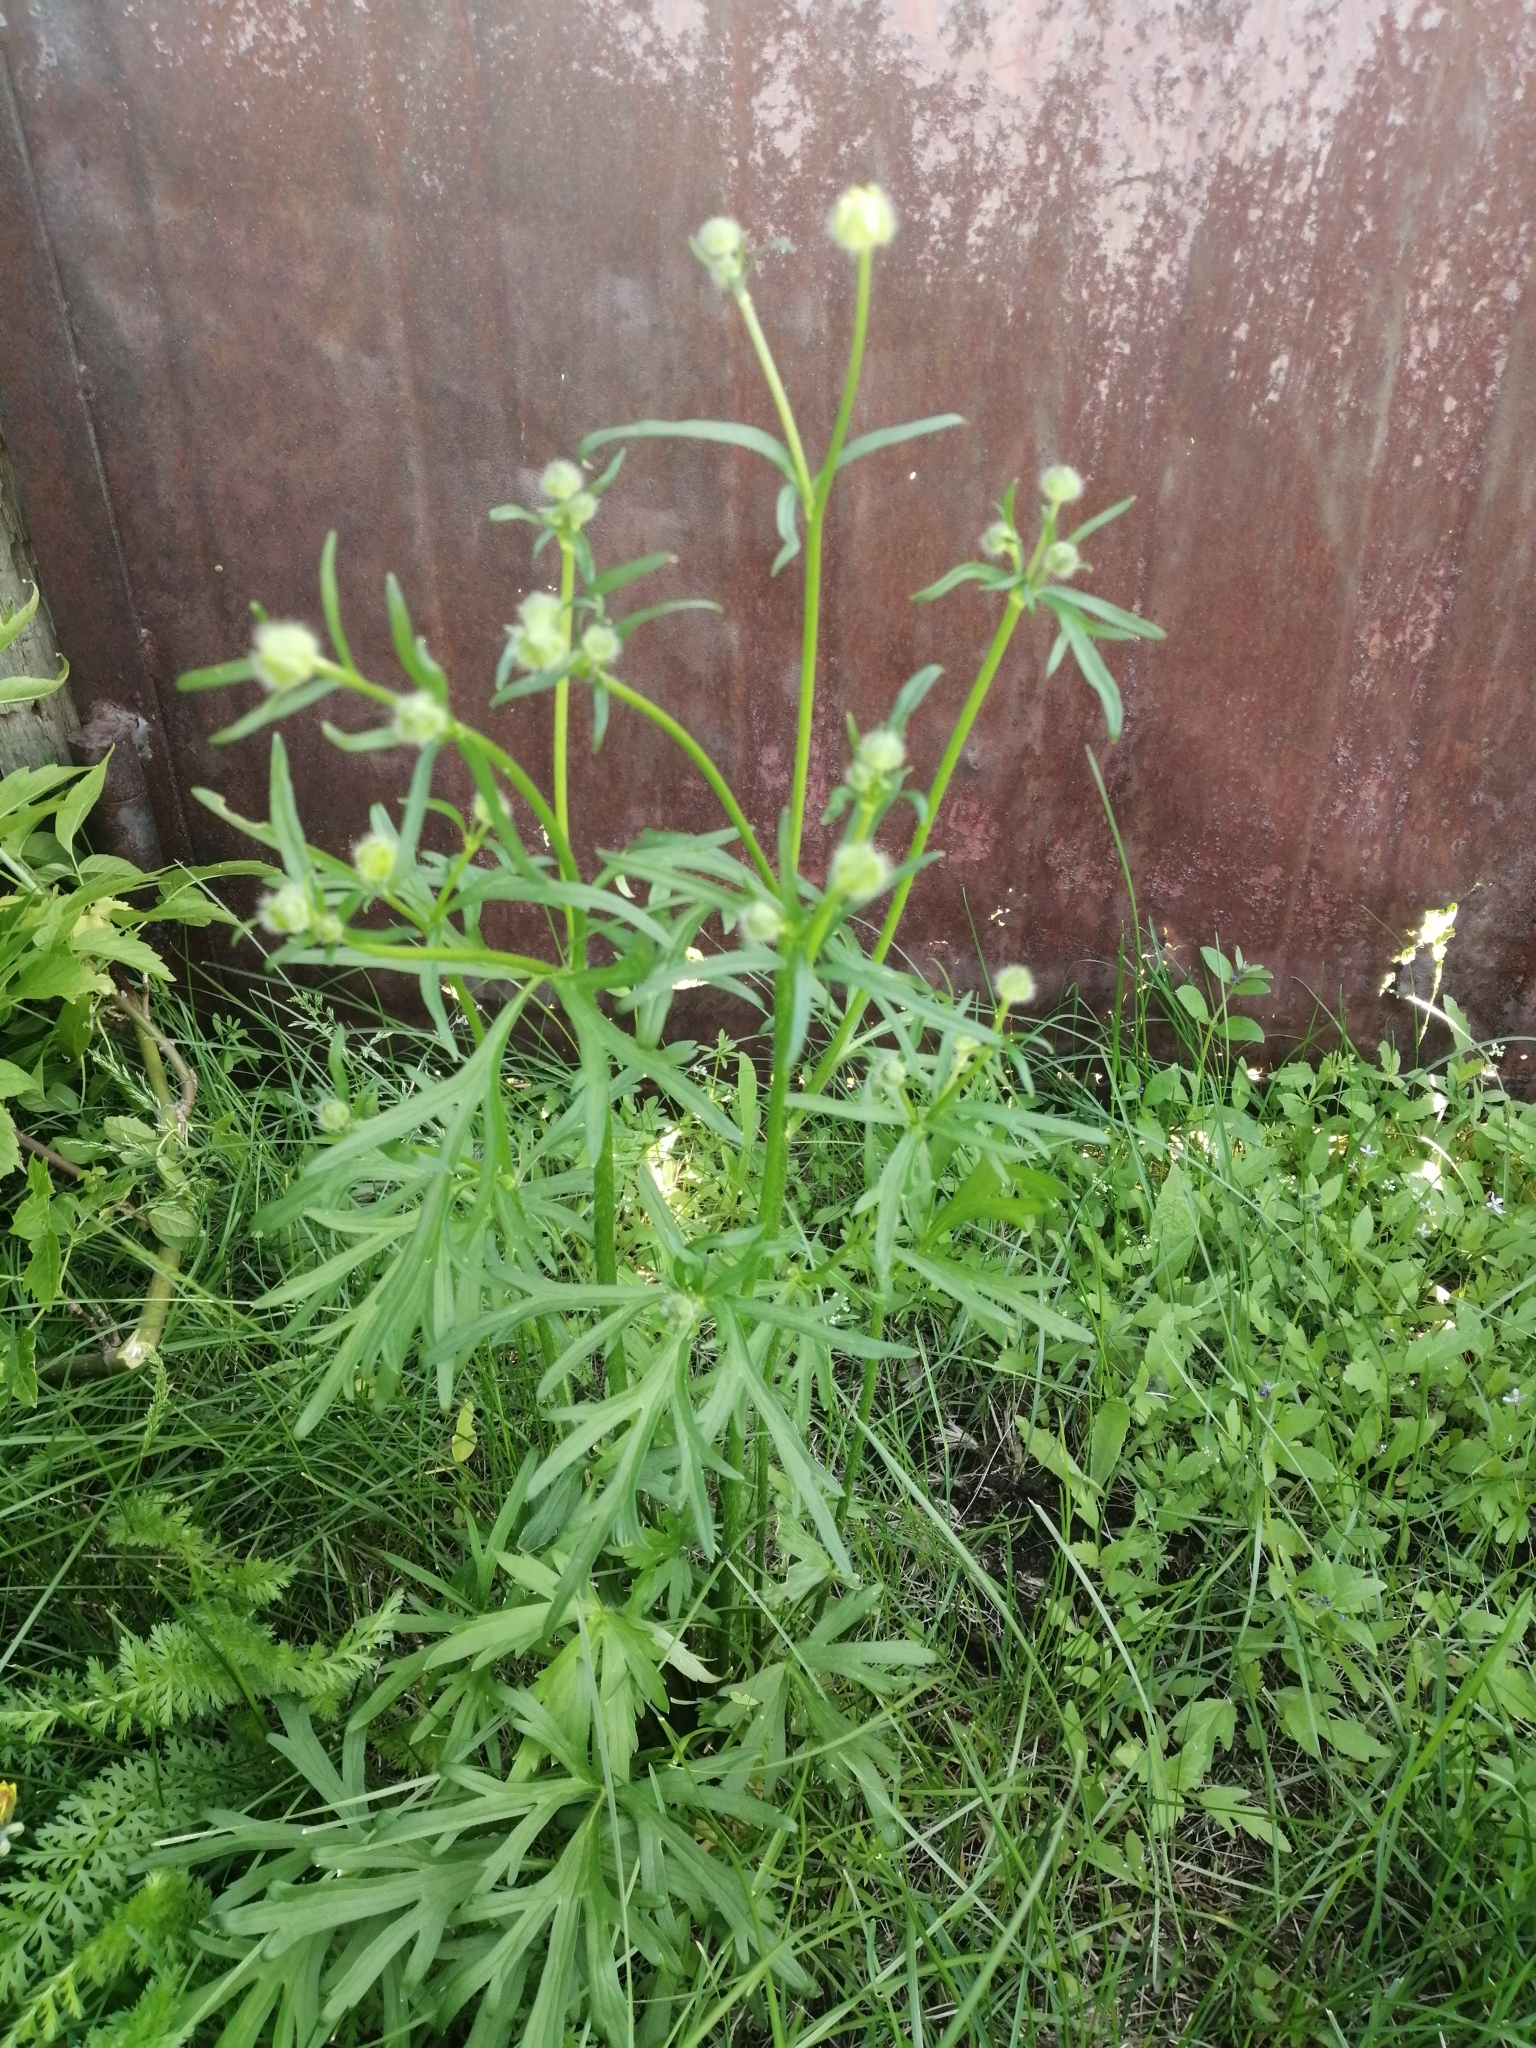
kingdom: Plantae
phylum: Tracheophyta
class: Magnoliopsida
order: Ranunculales
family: Ranunculaceae
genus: Ranunculus
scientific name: Ranunculus polyanthemos
